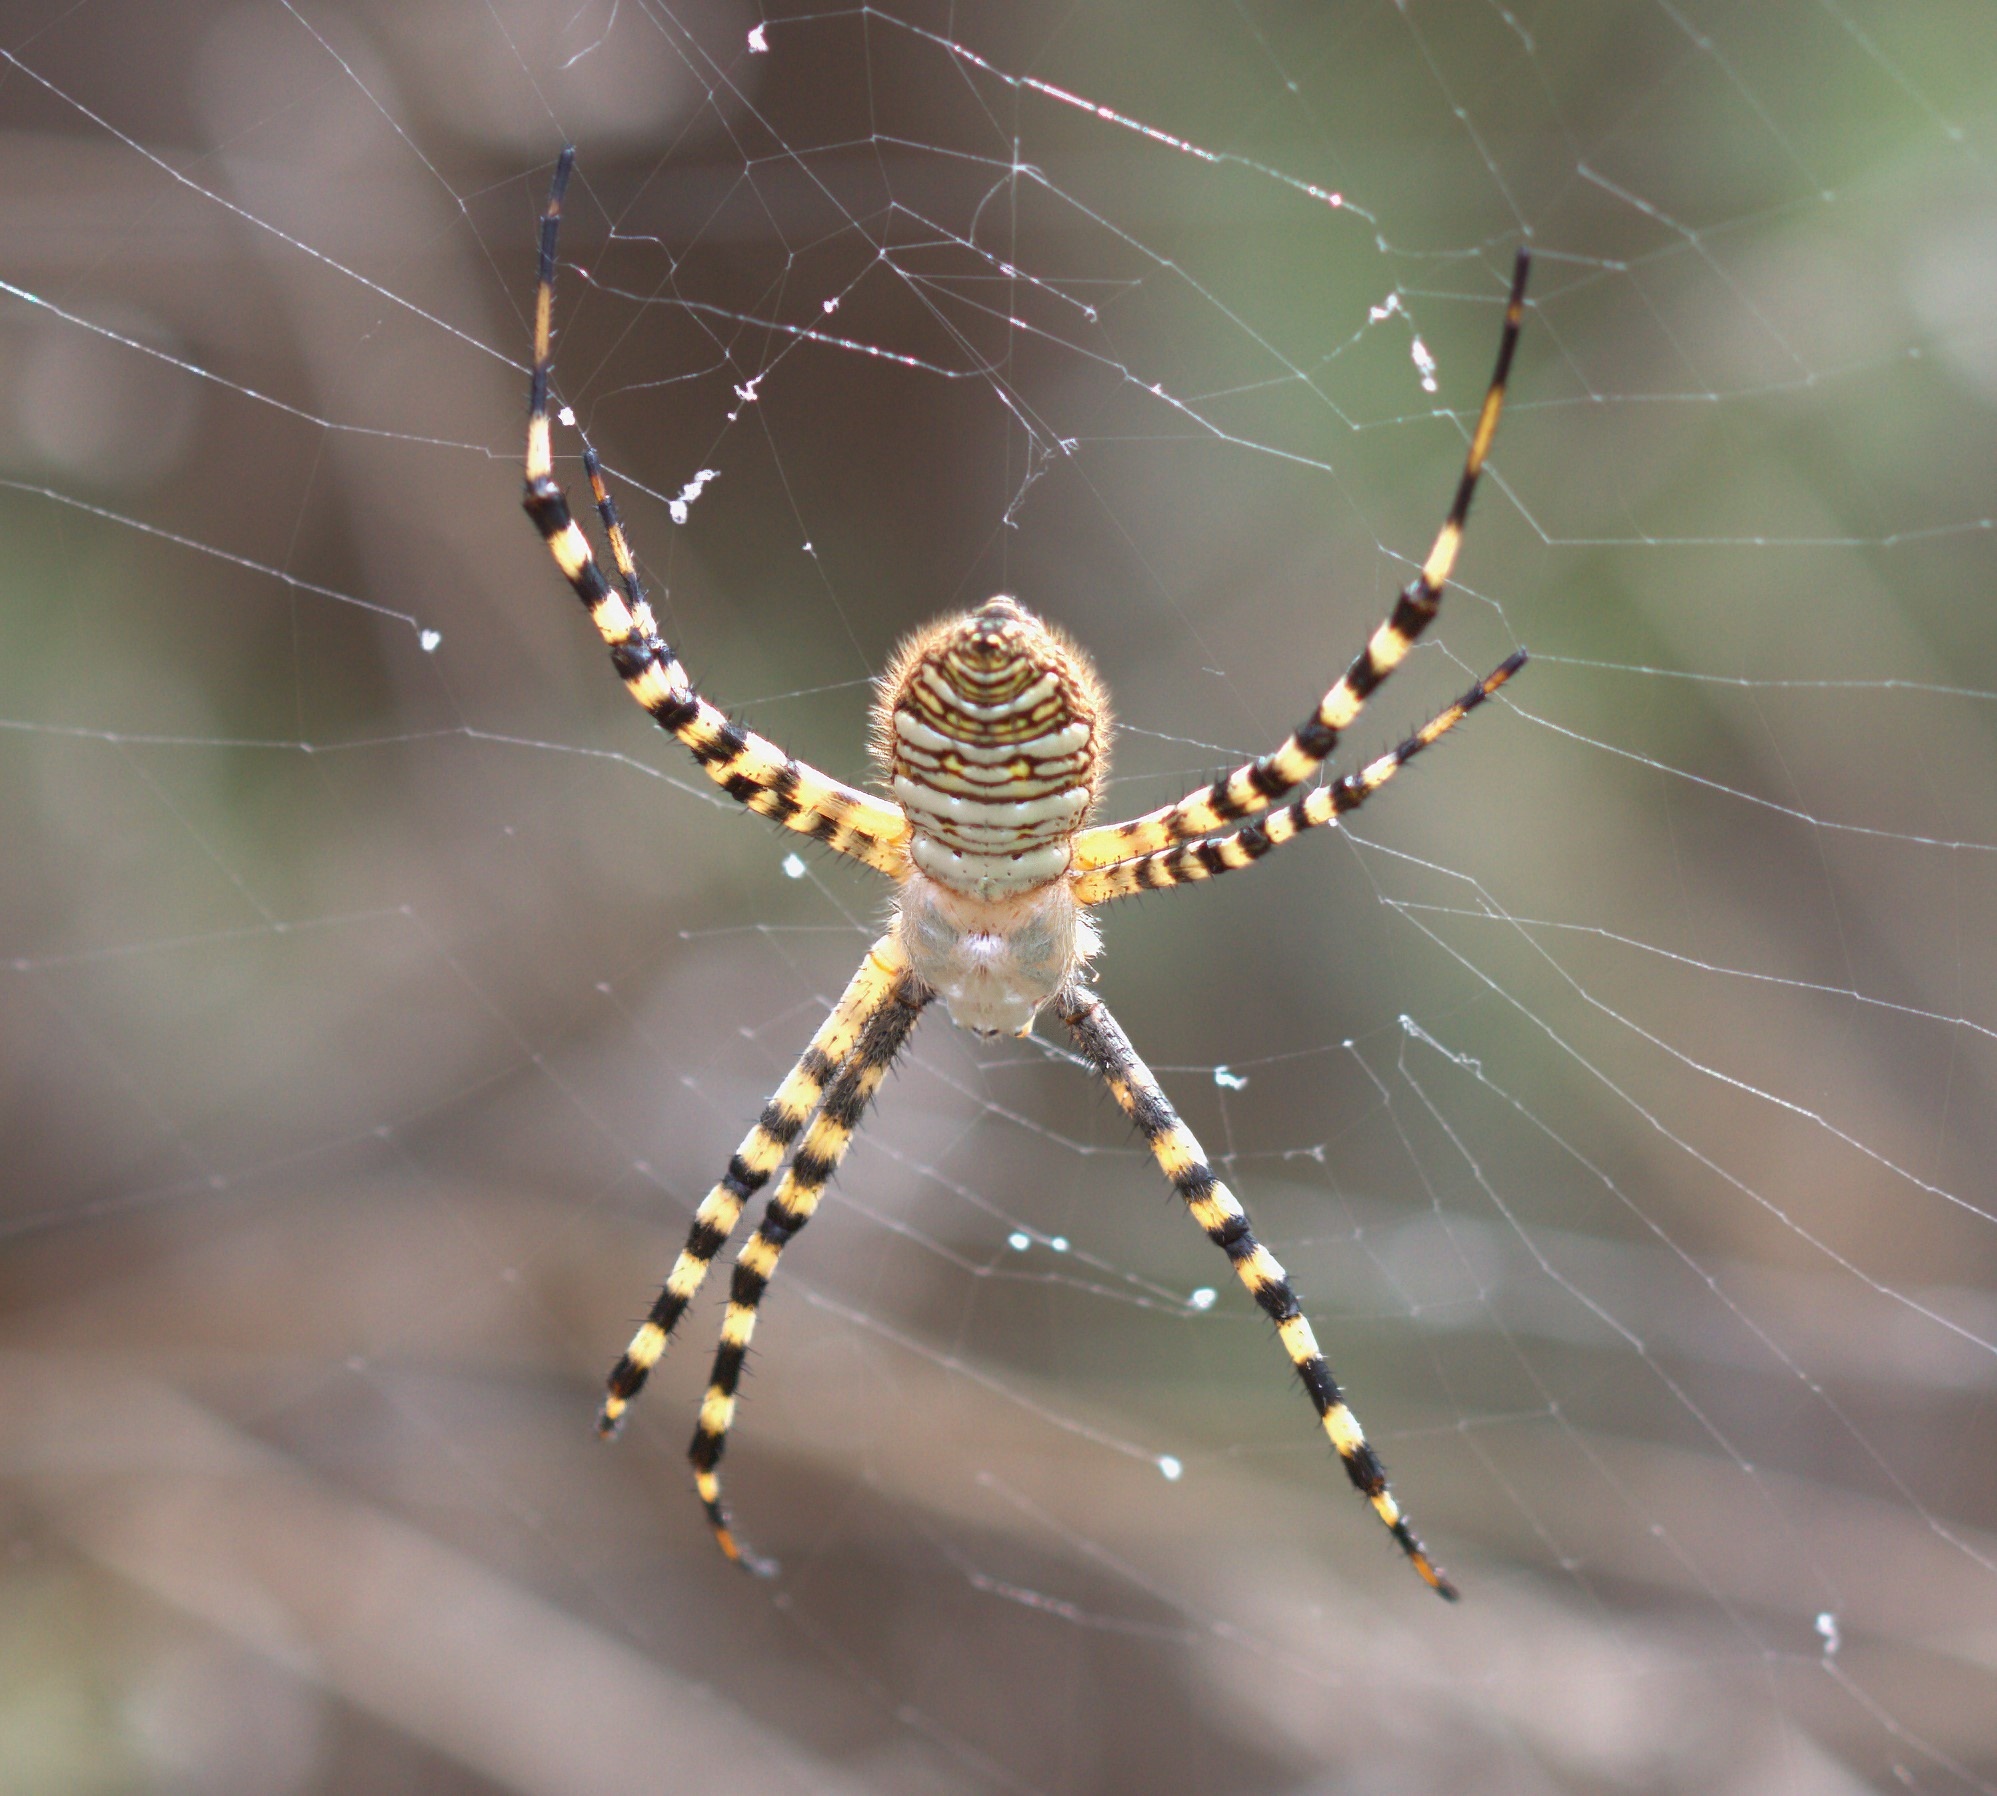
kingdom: Animalia
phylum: Arthropoda
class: Arachnida
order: Araneae
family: Araneidae
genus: Argiope
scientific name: Argiope trifasciata
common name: Banded garden spider
